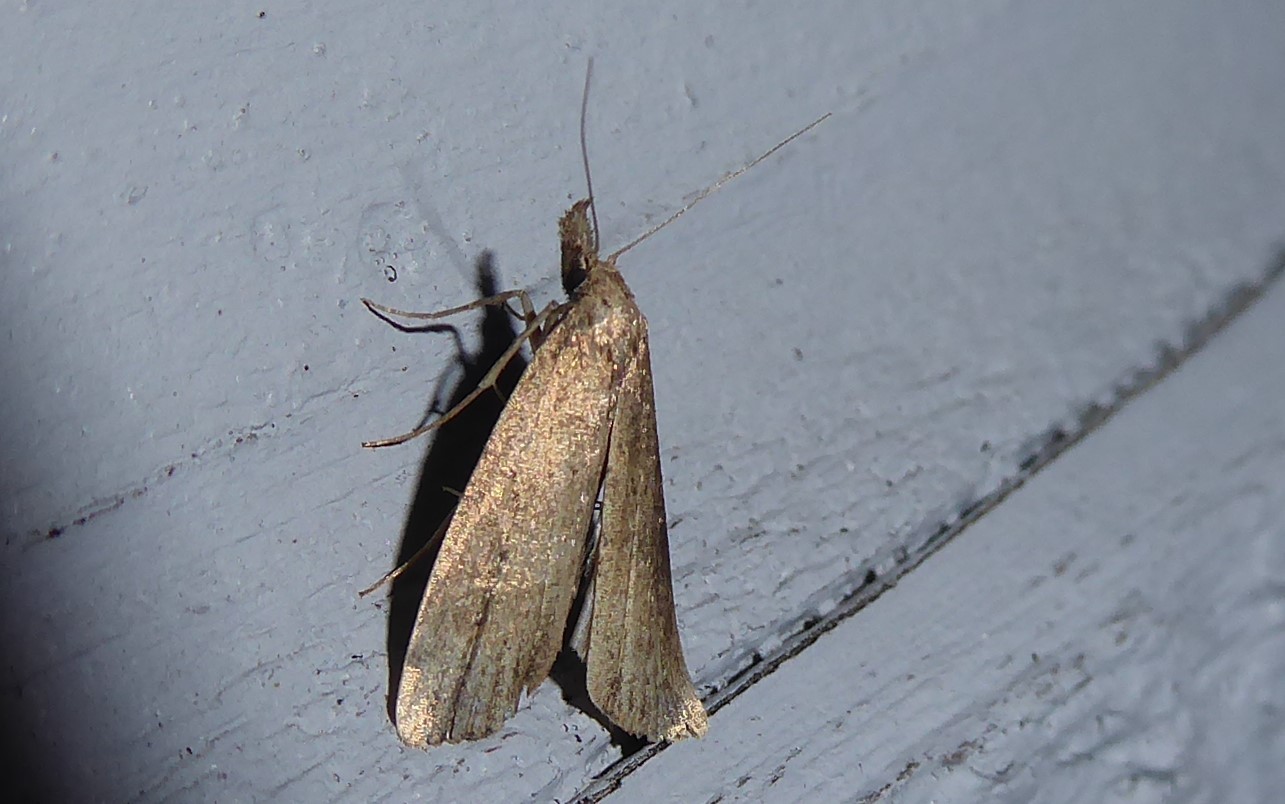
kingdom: Animalia
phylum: Arthropoda
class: Insecta
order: Lepidoptera
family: Erebidae
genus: Schrankia
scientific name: Schrankia costaestrigalis
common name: Pinion-streaked snout
